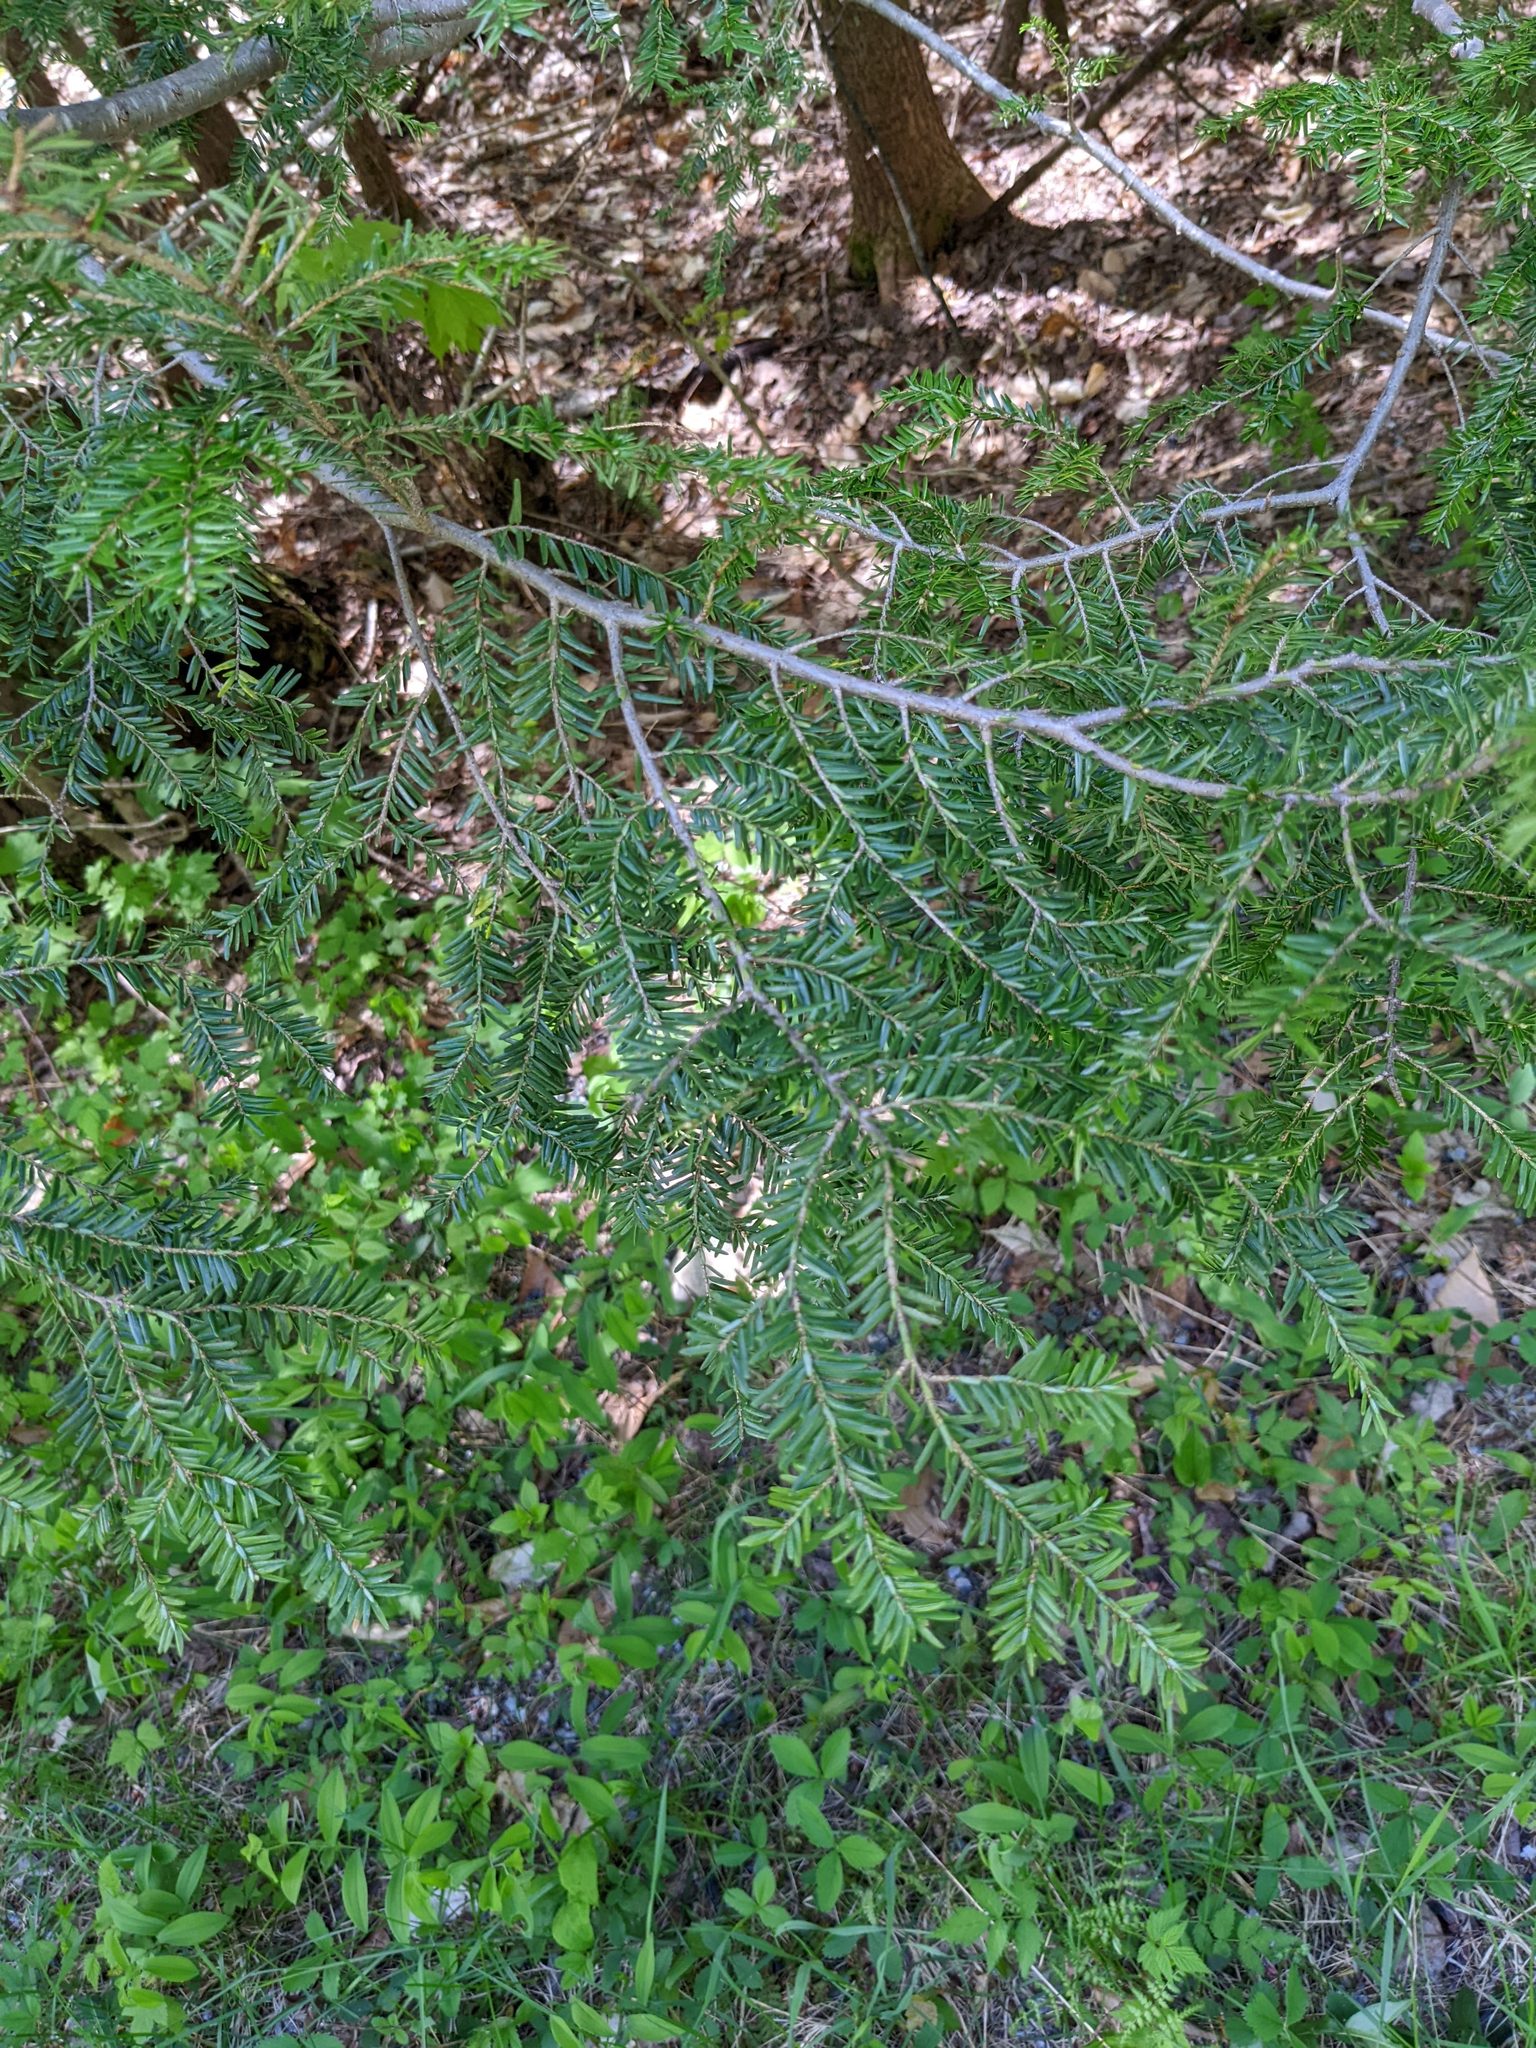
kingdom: Plantae
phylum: Tracheophyta
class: Pinopsida
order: Pinales
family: Pinaceae
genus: Tsuga
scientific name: Tsuga canadensis
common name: Eastern hemlock
